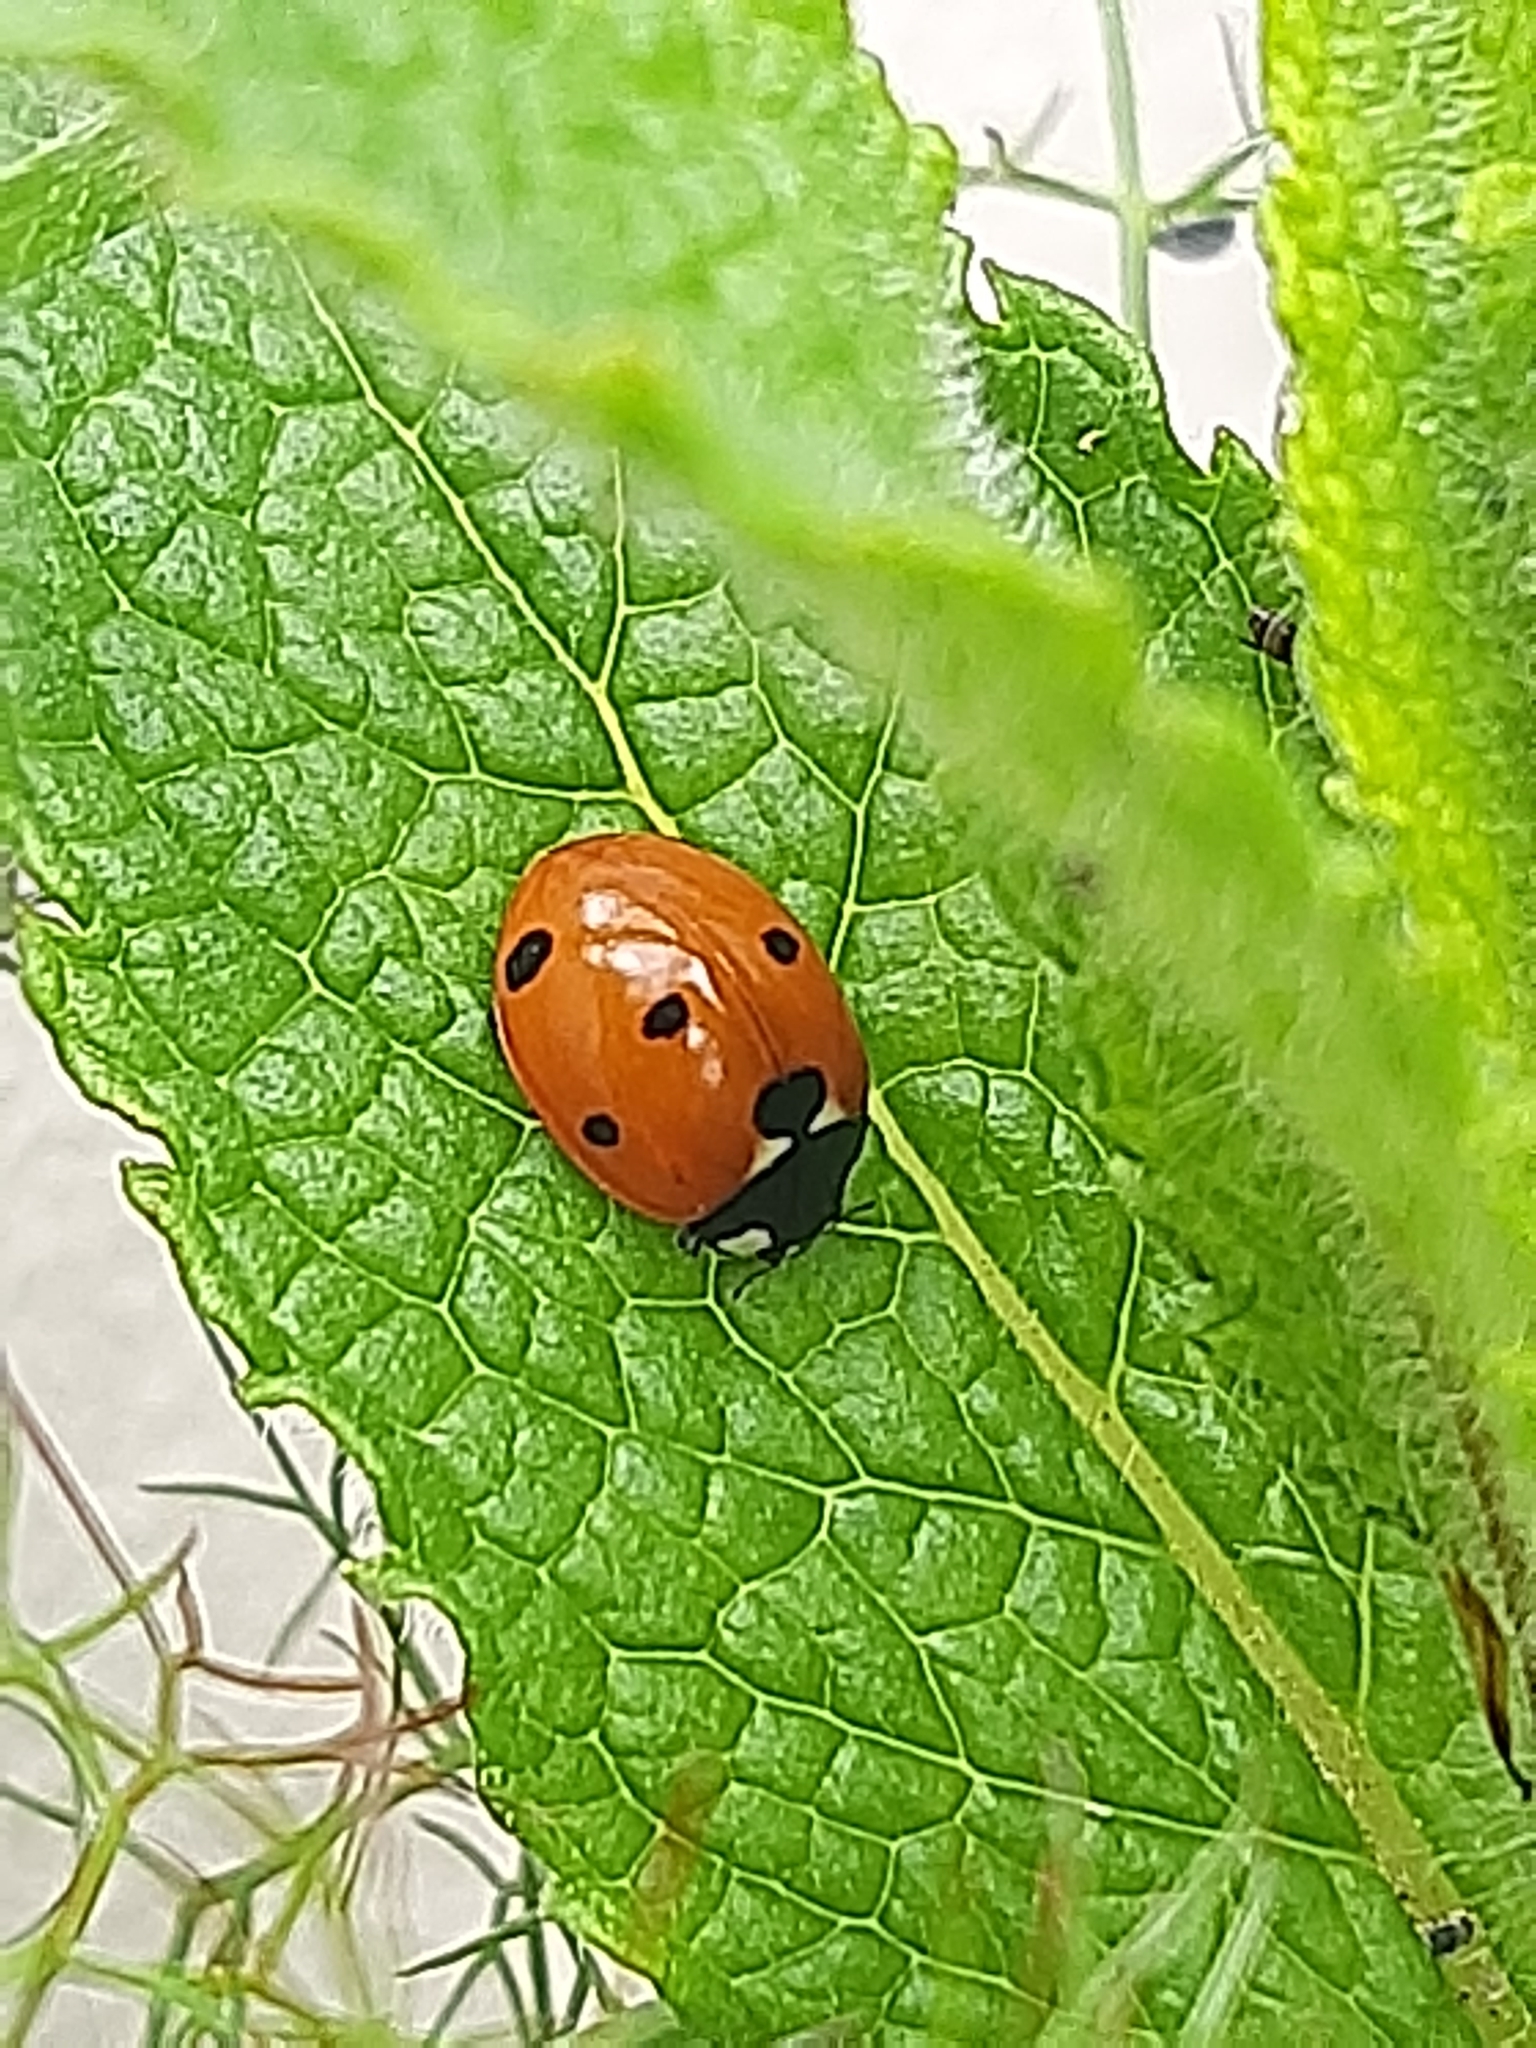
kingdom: Animalia
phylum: Arthropoda
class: Insecta
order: Coleoptera
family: Coccinellidae
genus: Coccinella
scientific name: Coccinella septempunctata
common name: Sevenspotted lady beetle
